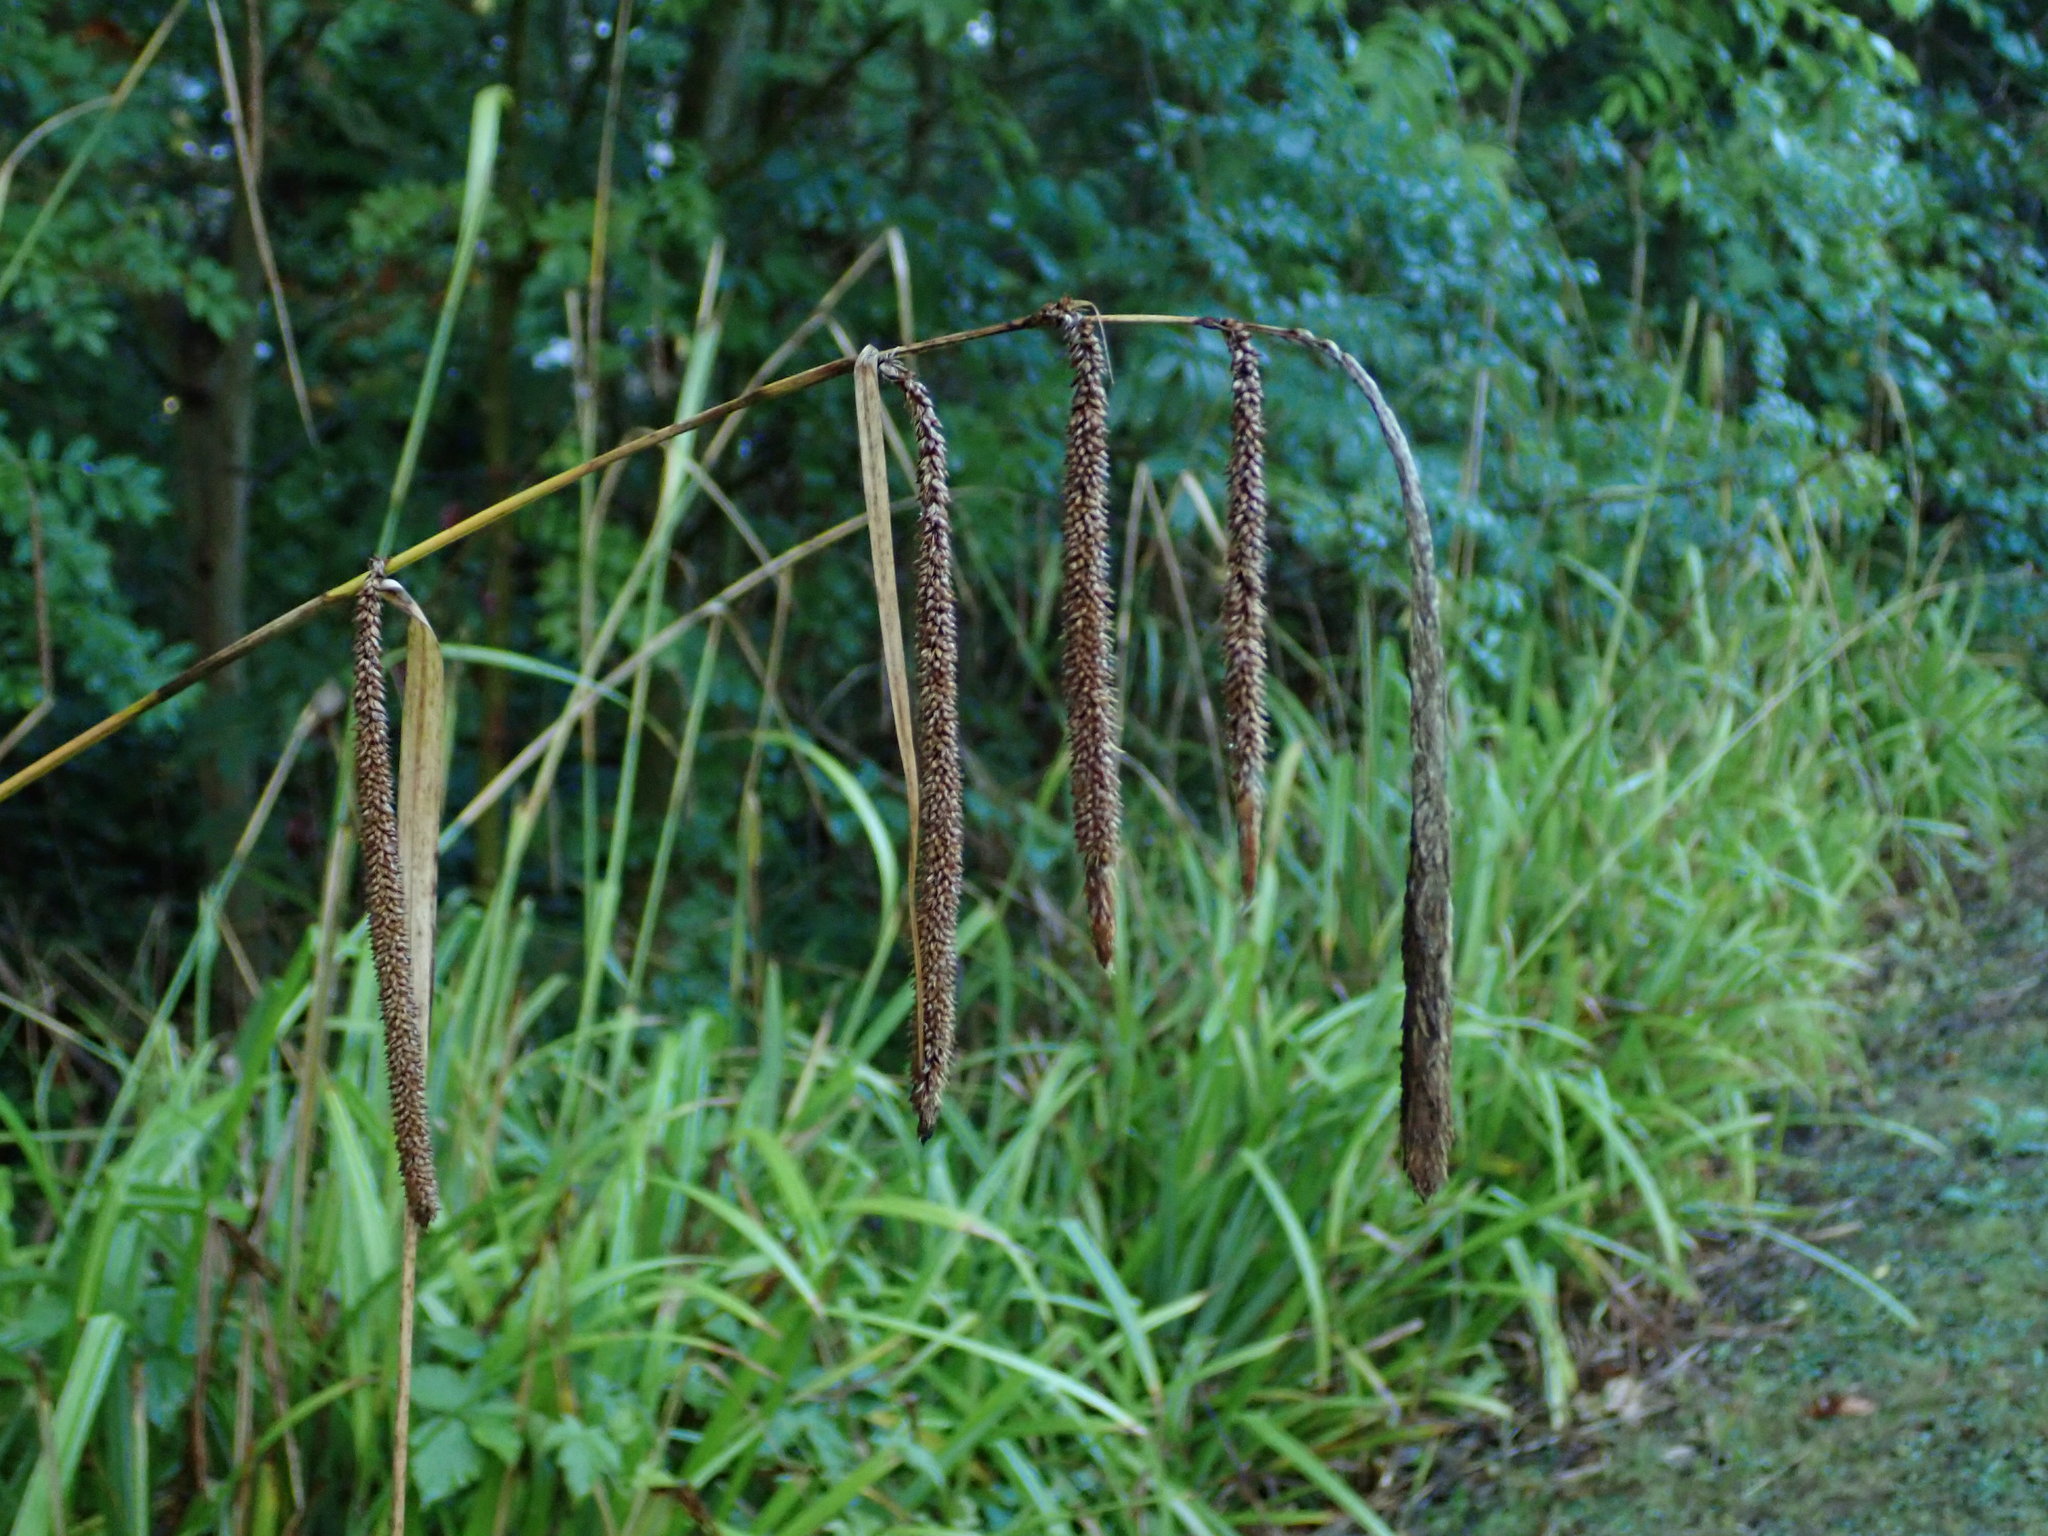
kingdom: Plantae
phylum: Tracheophyta
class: Liliopsida
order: Poales
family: Cyperaceae
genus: Carex
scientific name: Carex pendula
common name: Pendulous sedge
